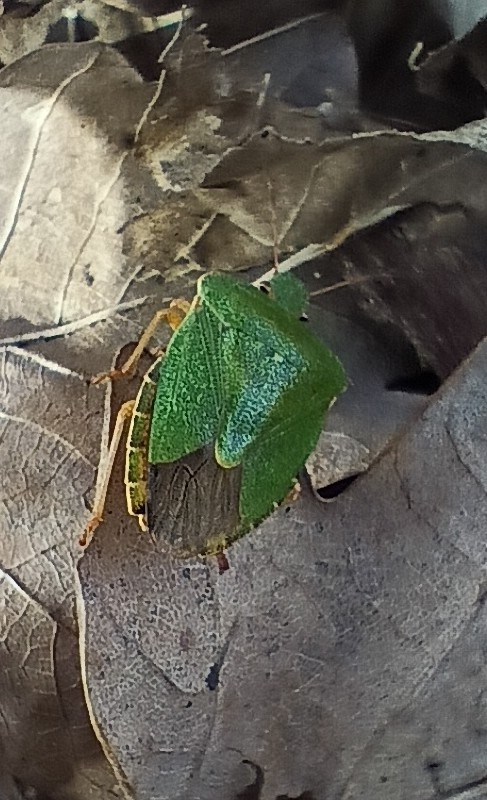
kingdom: Animalia
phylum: Arthropoda
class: Insecta
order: Hemiptera
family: Pentatomidae
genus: Palomena
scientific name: Palomena prasina
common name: Green shieldbug
